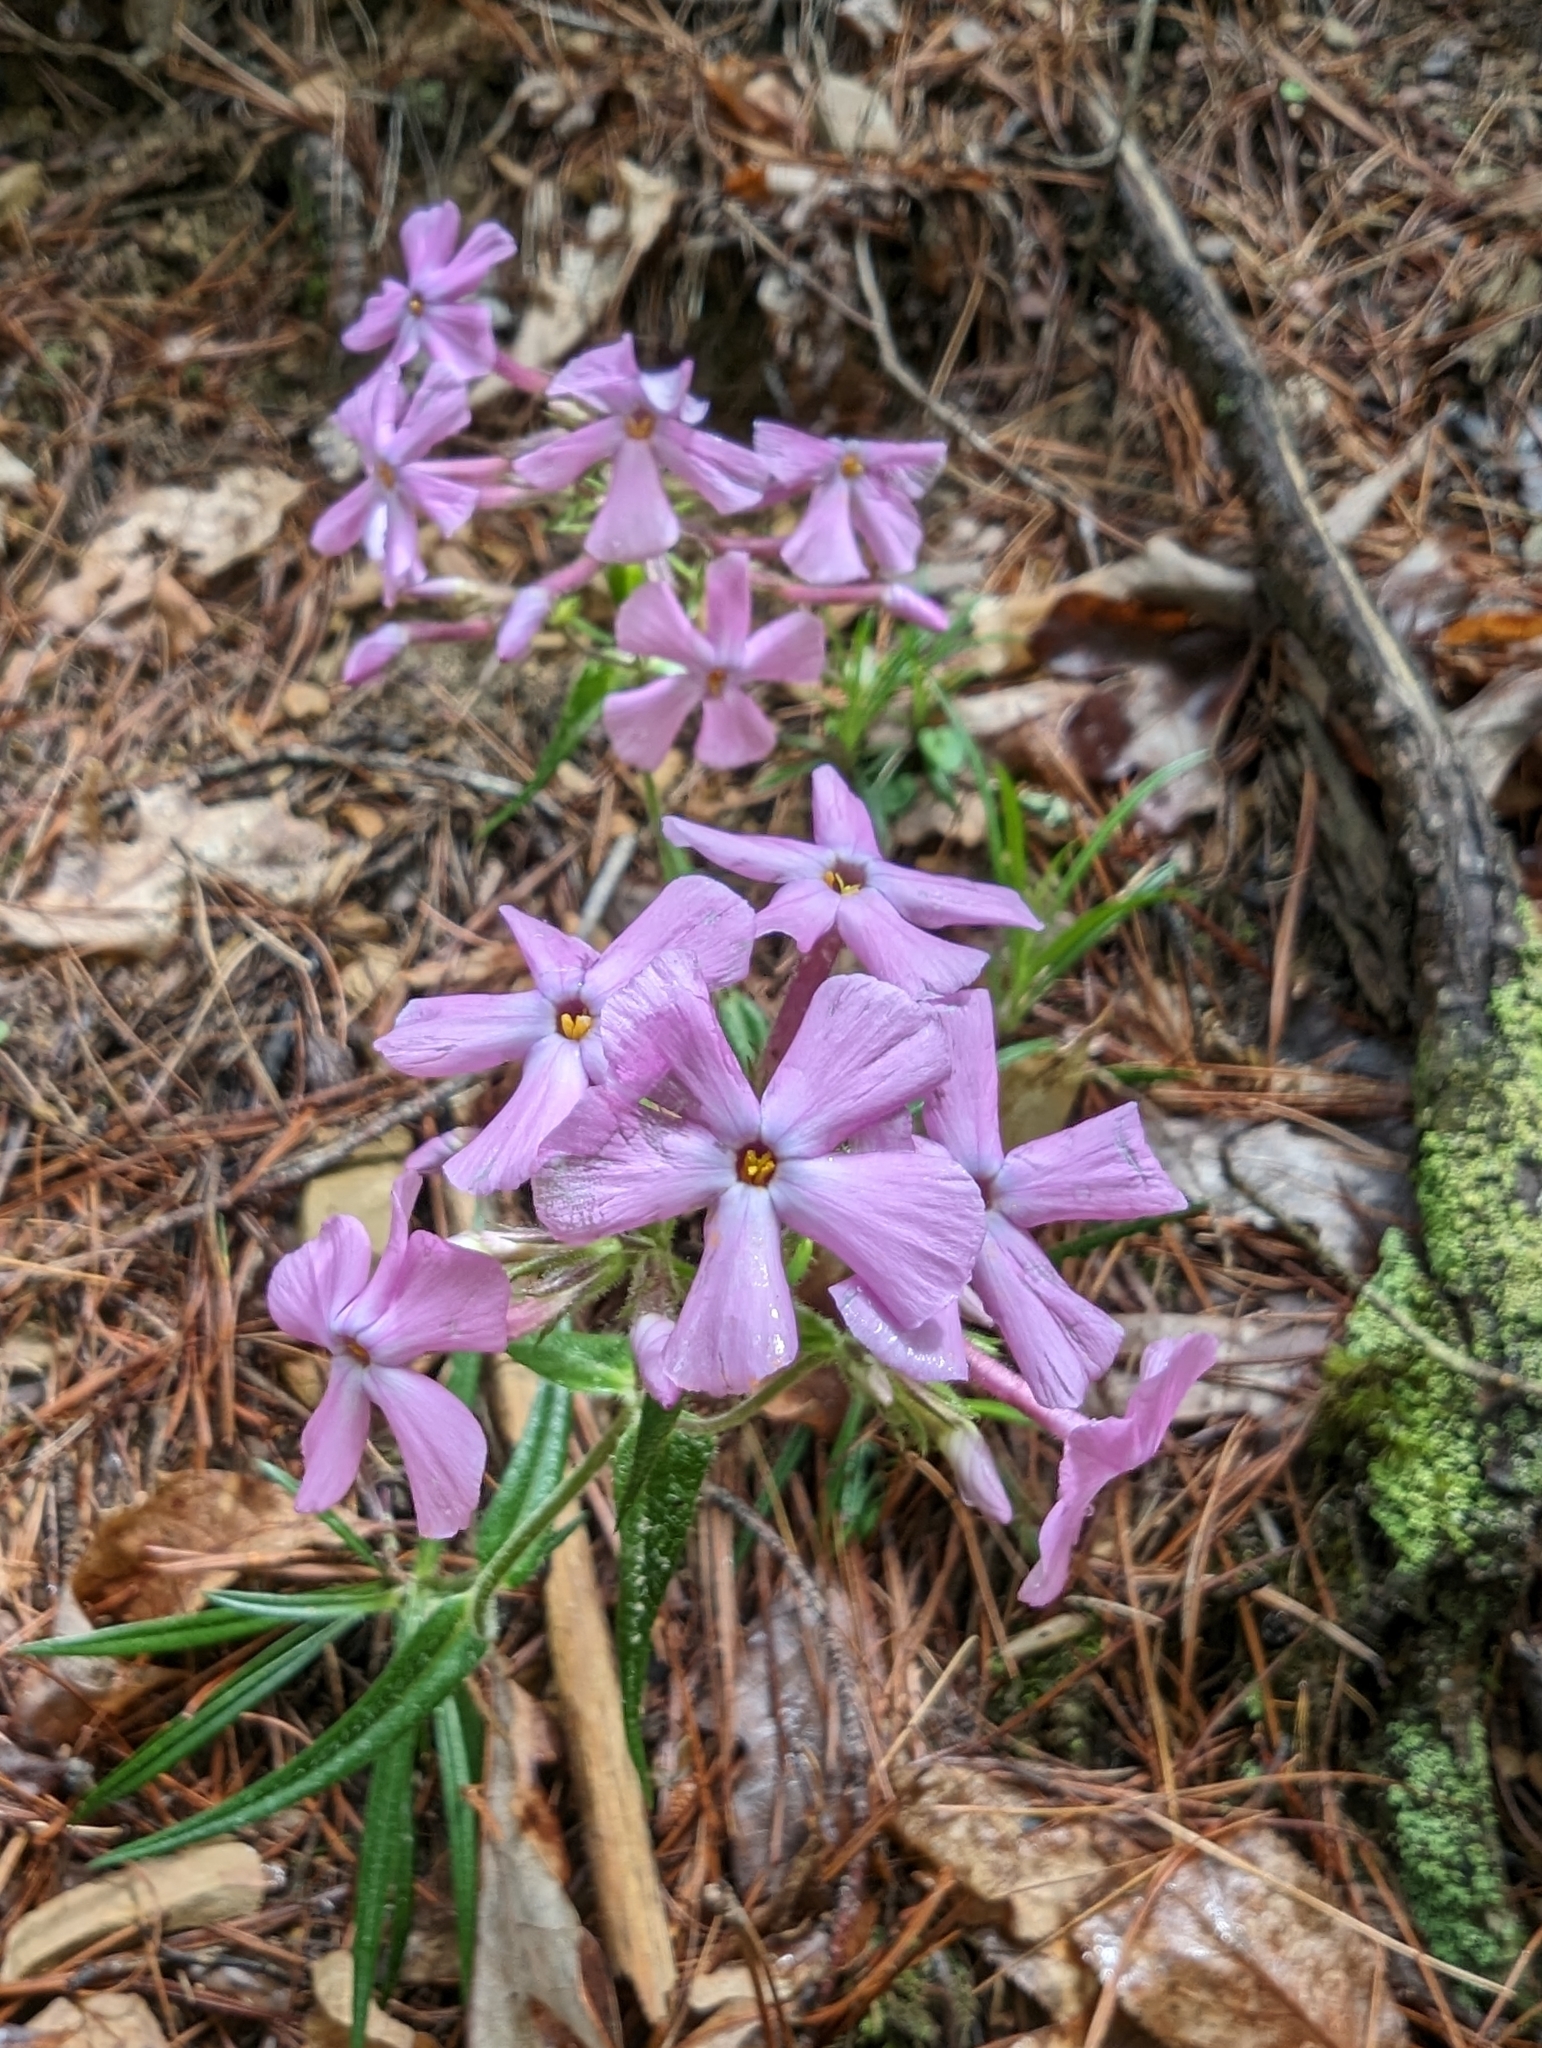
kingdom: Plantae
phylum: Tracheophyta
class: Magnoliopsida
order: Ericales
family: Polemoniaceae
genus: Phlox
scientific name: Phlox buckleyi
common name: Shale-barren phlox
